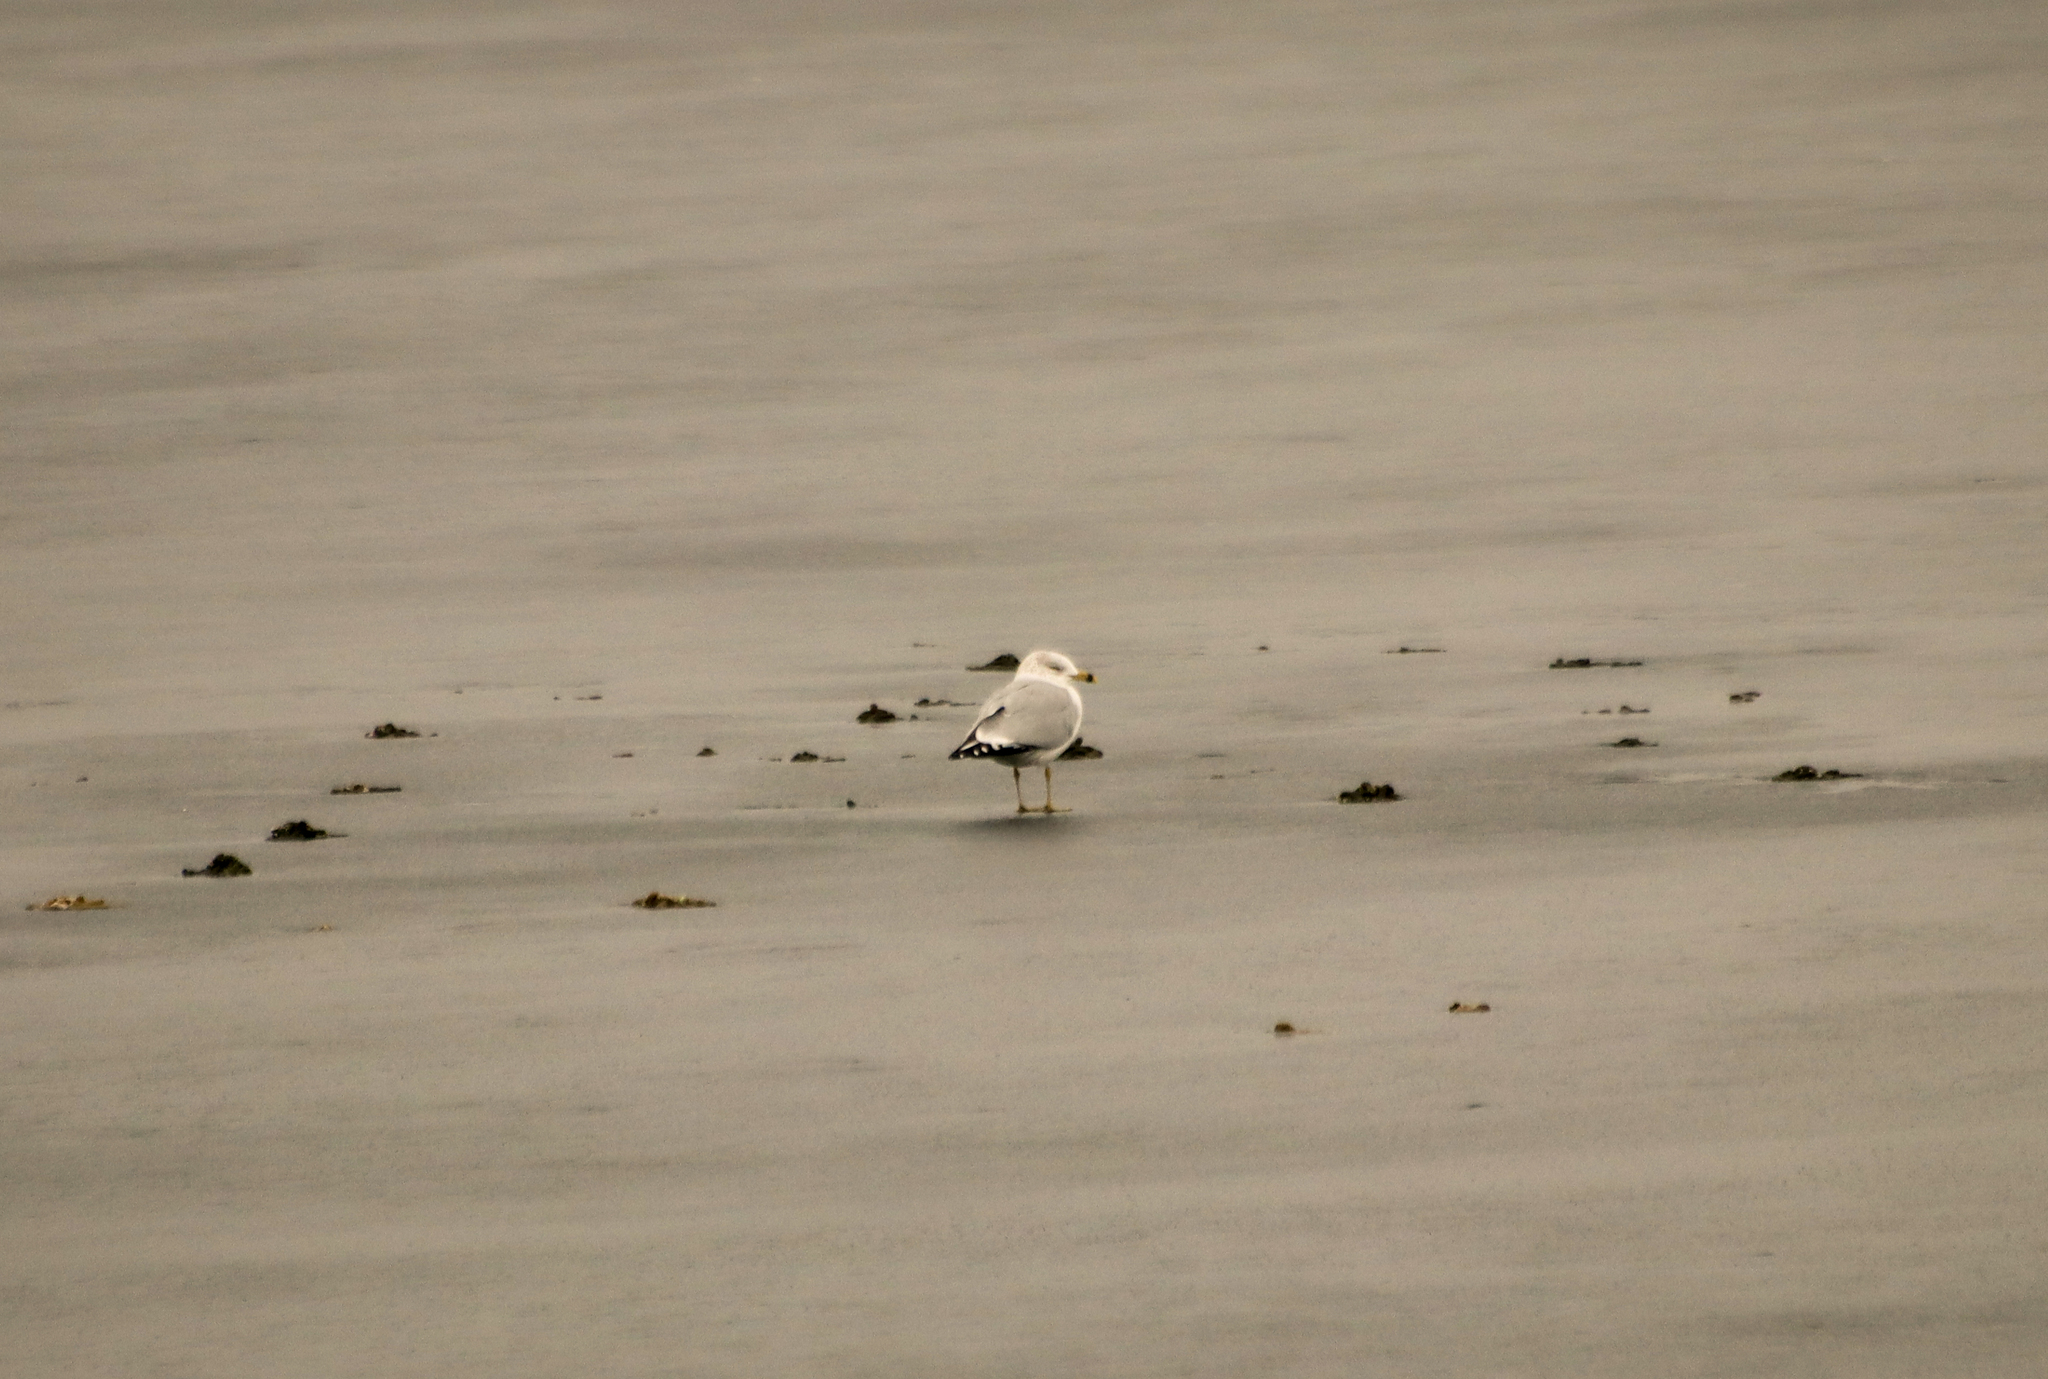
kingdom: Animalia
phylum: Chordata
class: Aves
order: Charadriiformes
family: Laridae
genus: Larus
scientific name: Larus delawarensis
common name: Ring-billed gull
